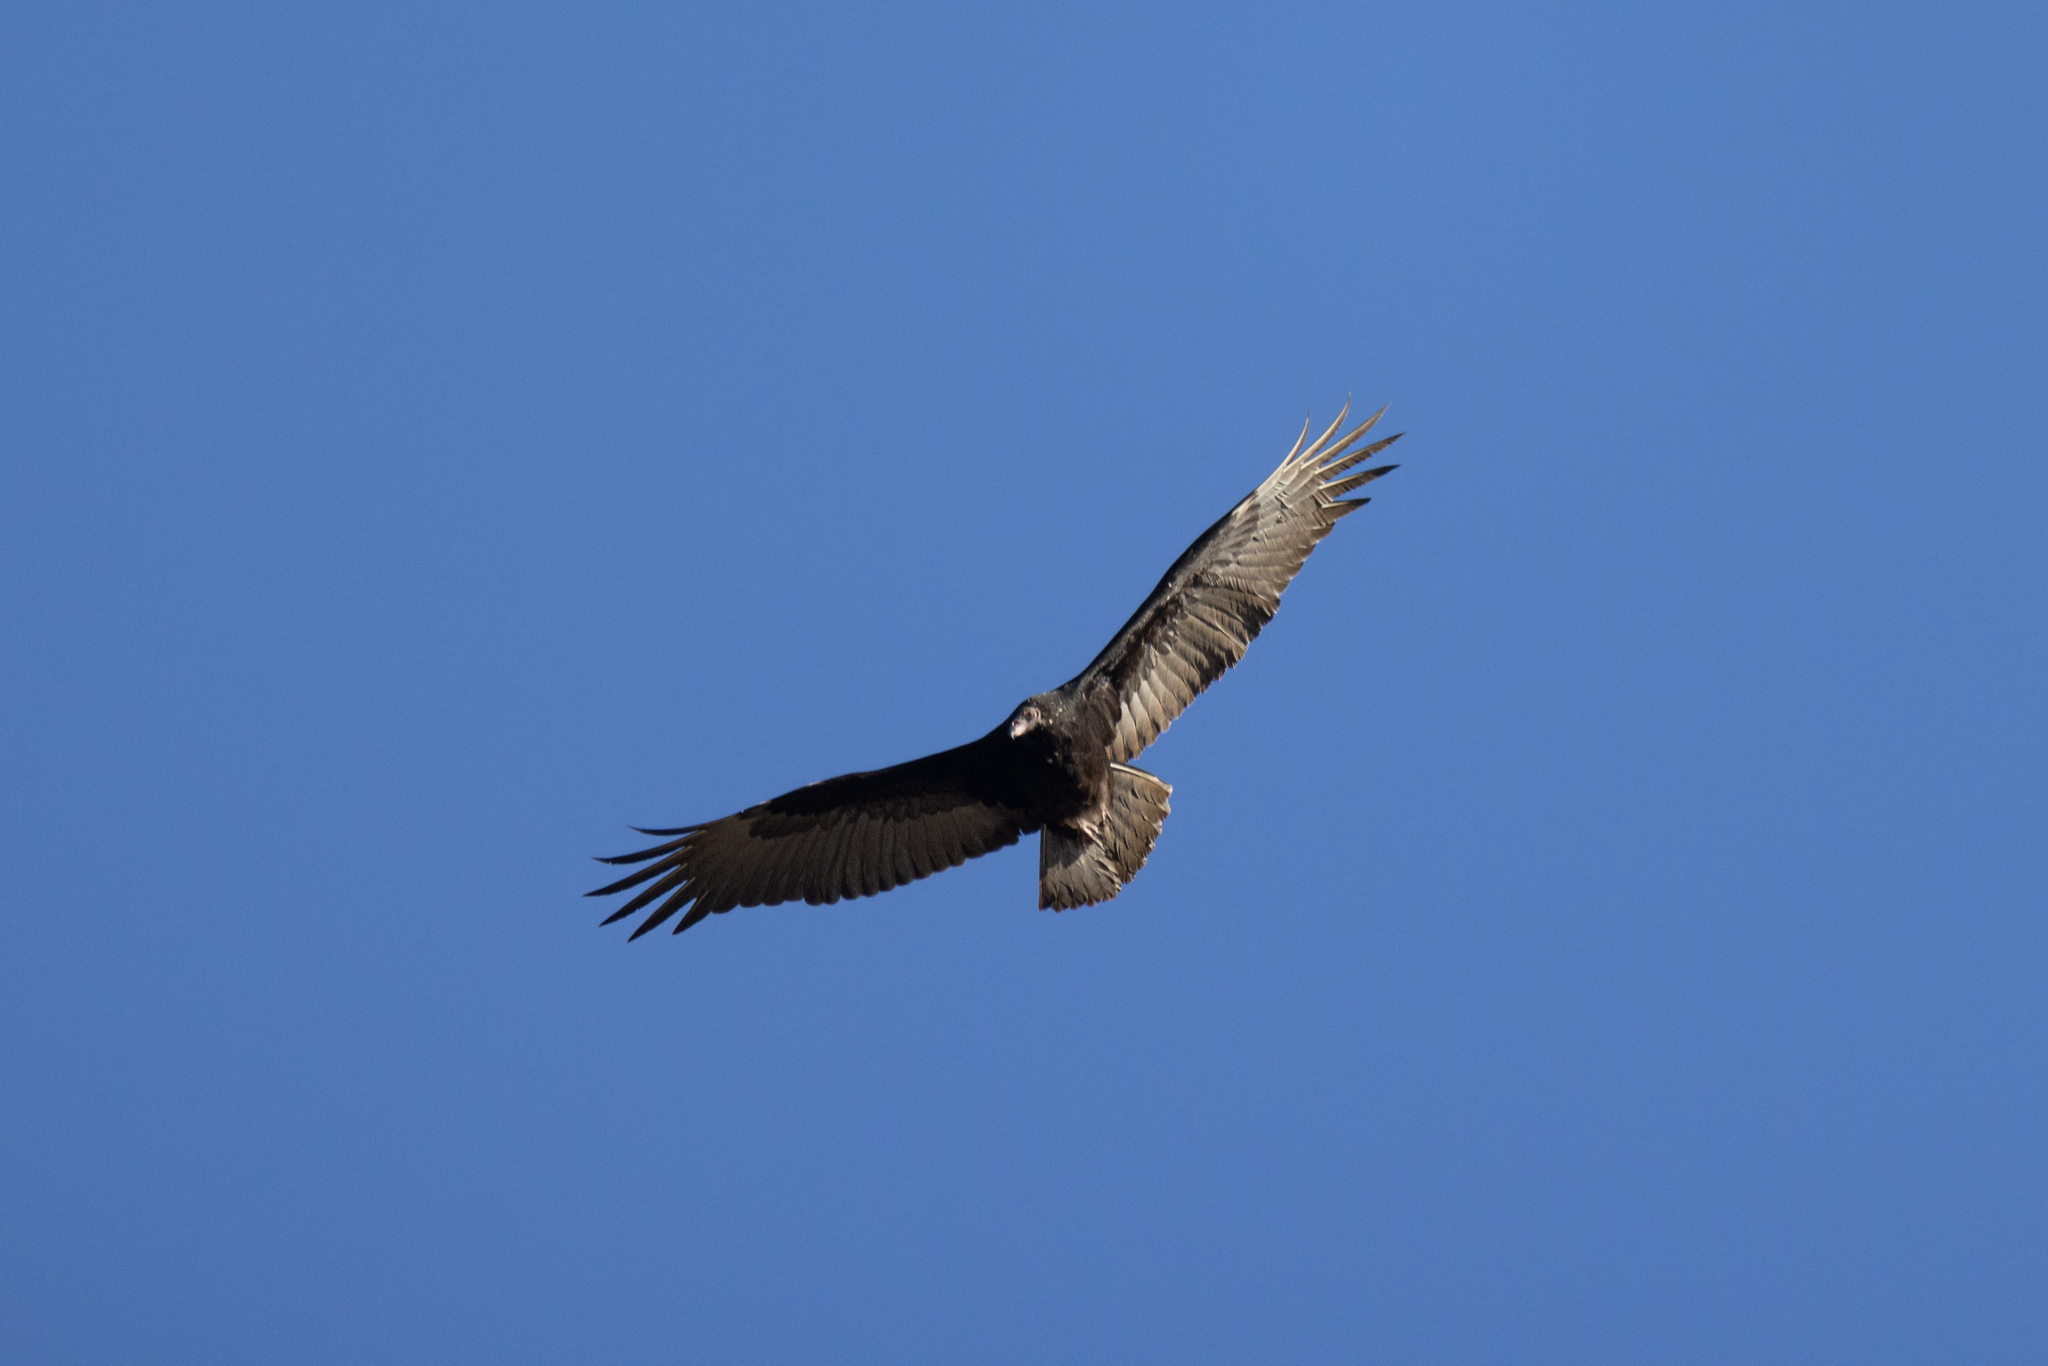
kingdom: Animalia
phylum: Chordata
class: Aves
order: Accipitriformes
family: Cathartidae
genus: Cathartes
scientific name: Cathartes aura
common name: Turkey vulture
